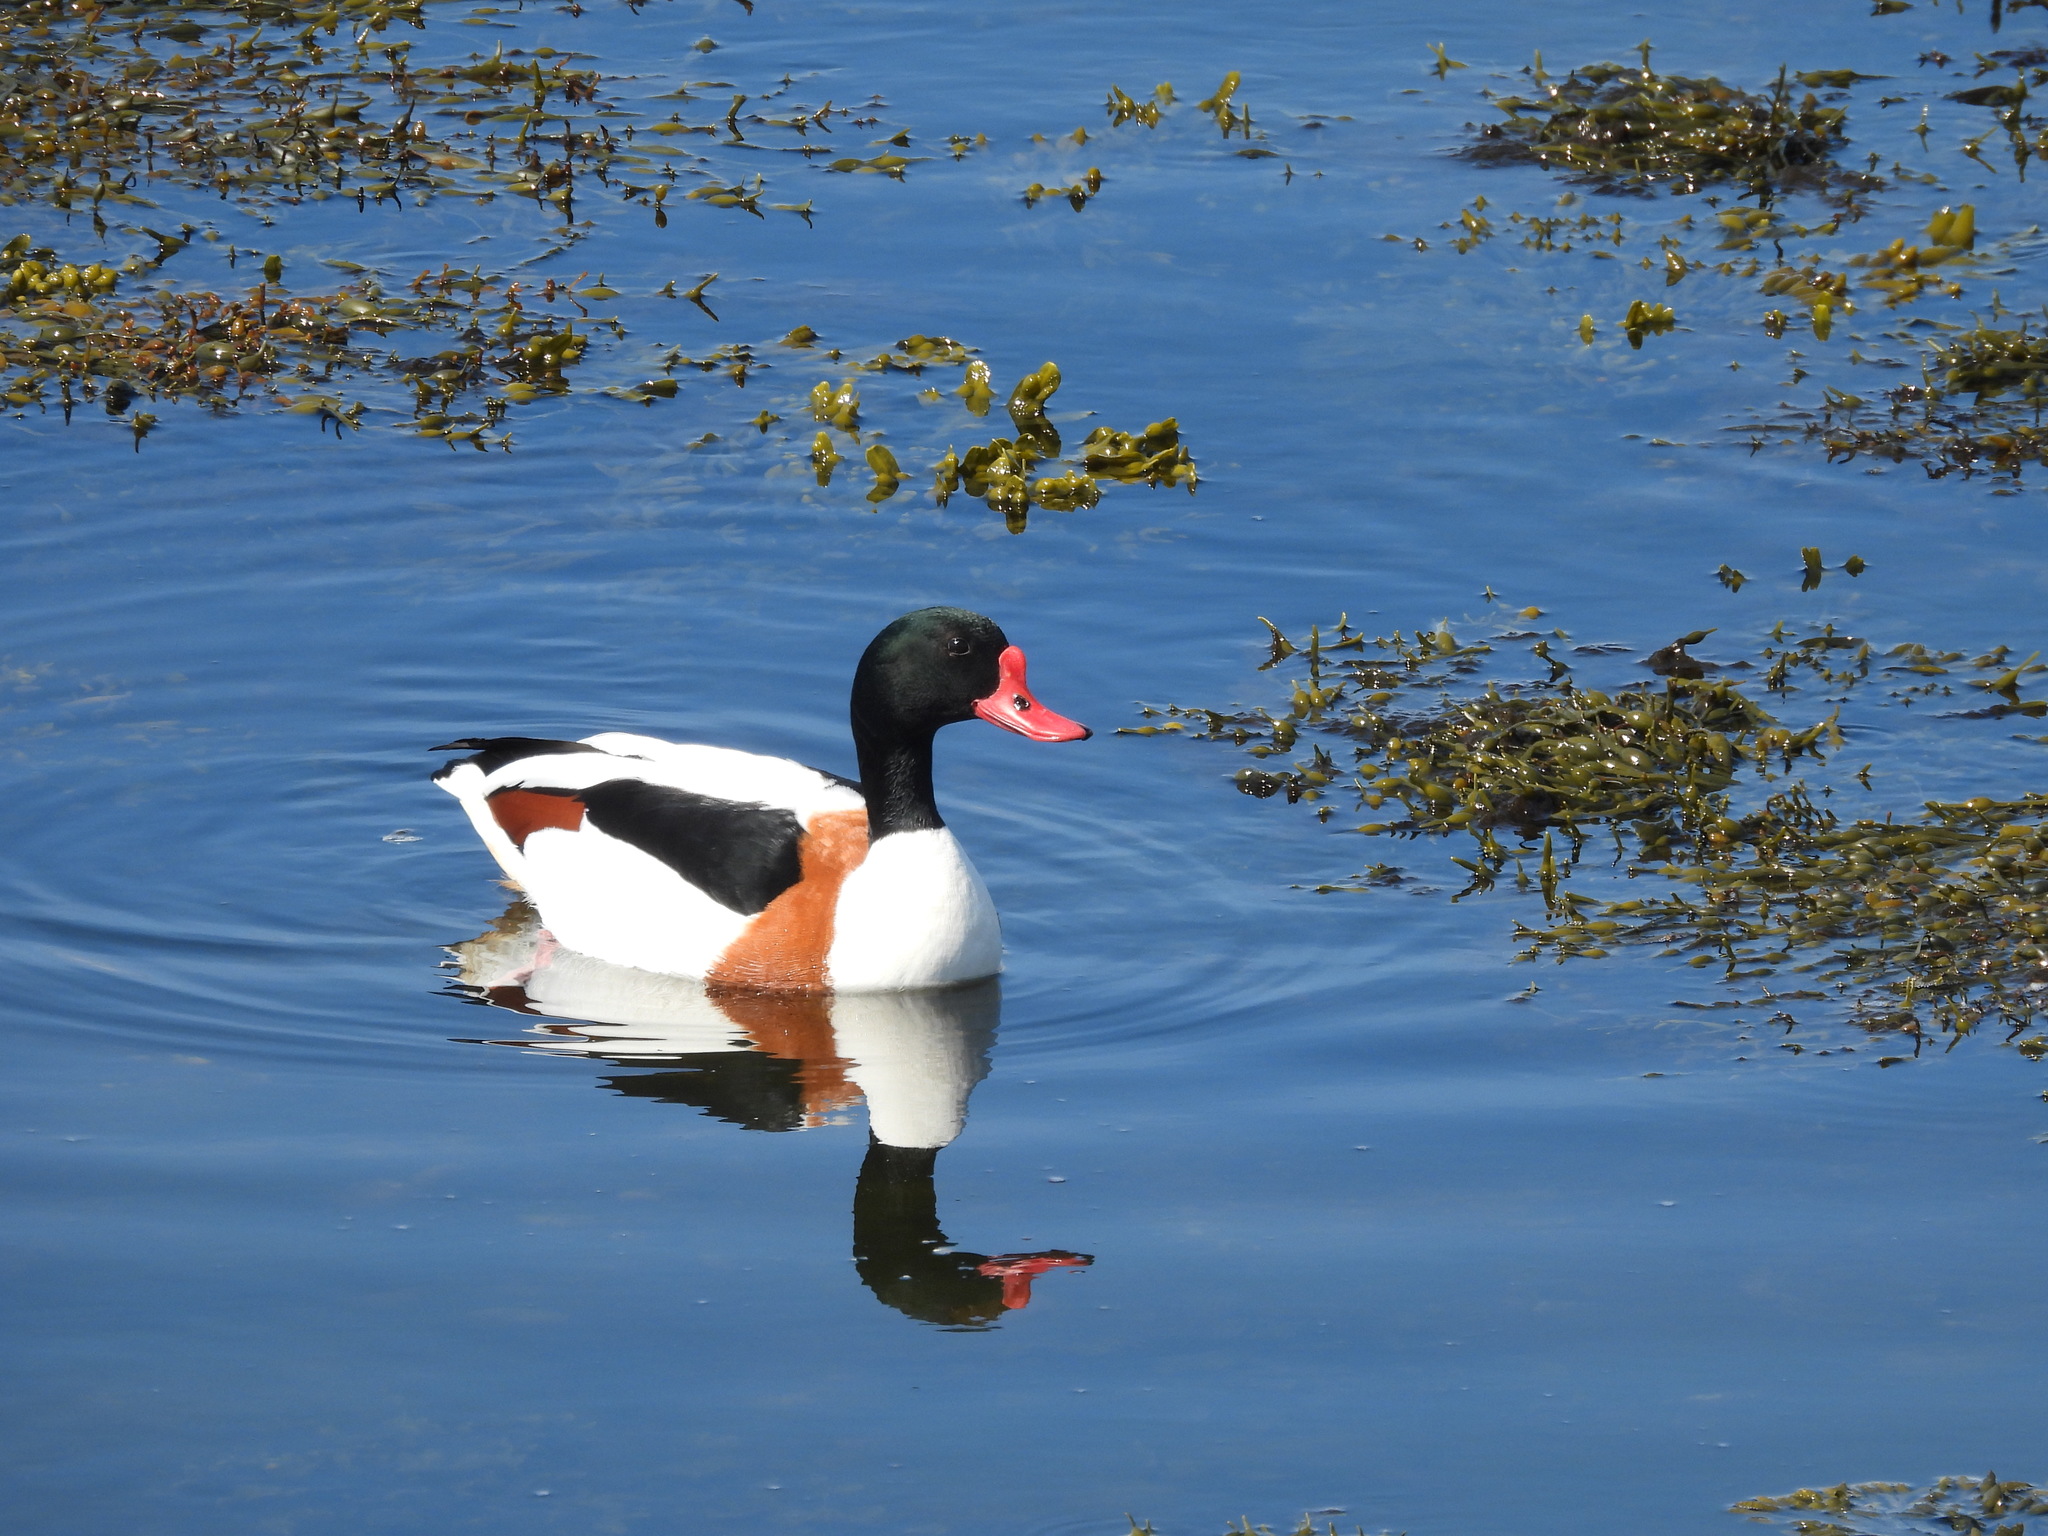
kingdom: Animalia
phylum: Chordata
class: Aves
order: Anseriformes
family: Anatidae
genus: Tadorna
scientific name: Tadorna tadorna
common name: Common shelduck
